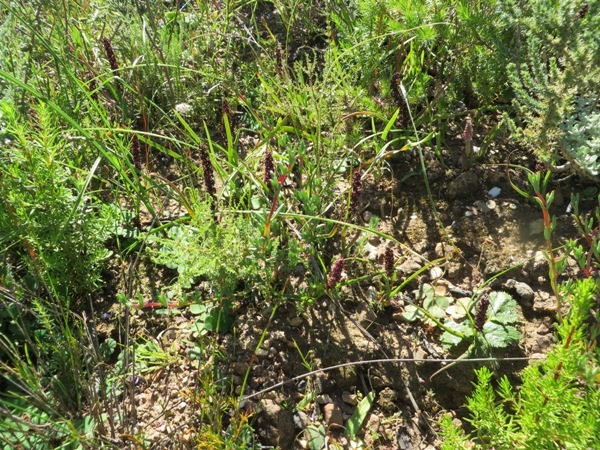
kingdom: Plantae
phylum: Tracheophyta
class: Liliopsida
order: Liliales
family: Colchicaceae
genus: Wurmbea
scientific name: Wurmbea recurva
